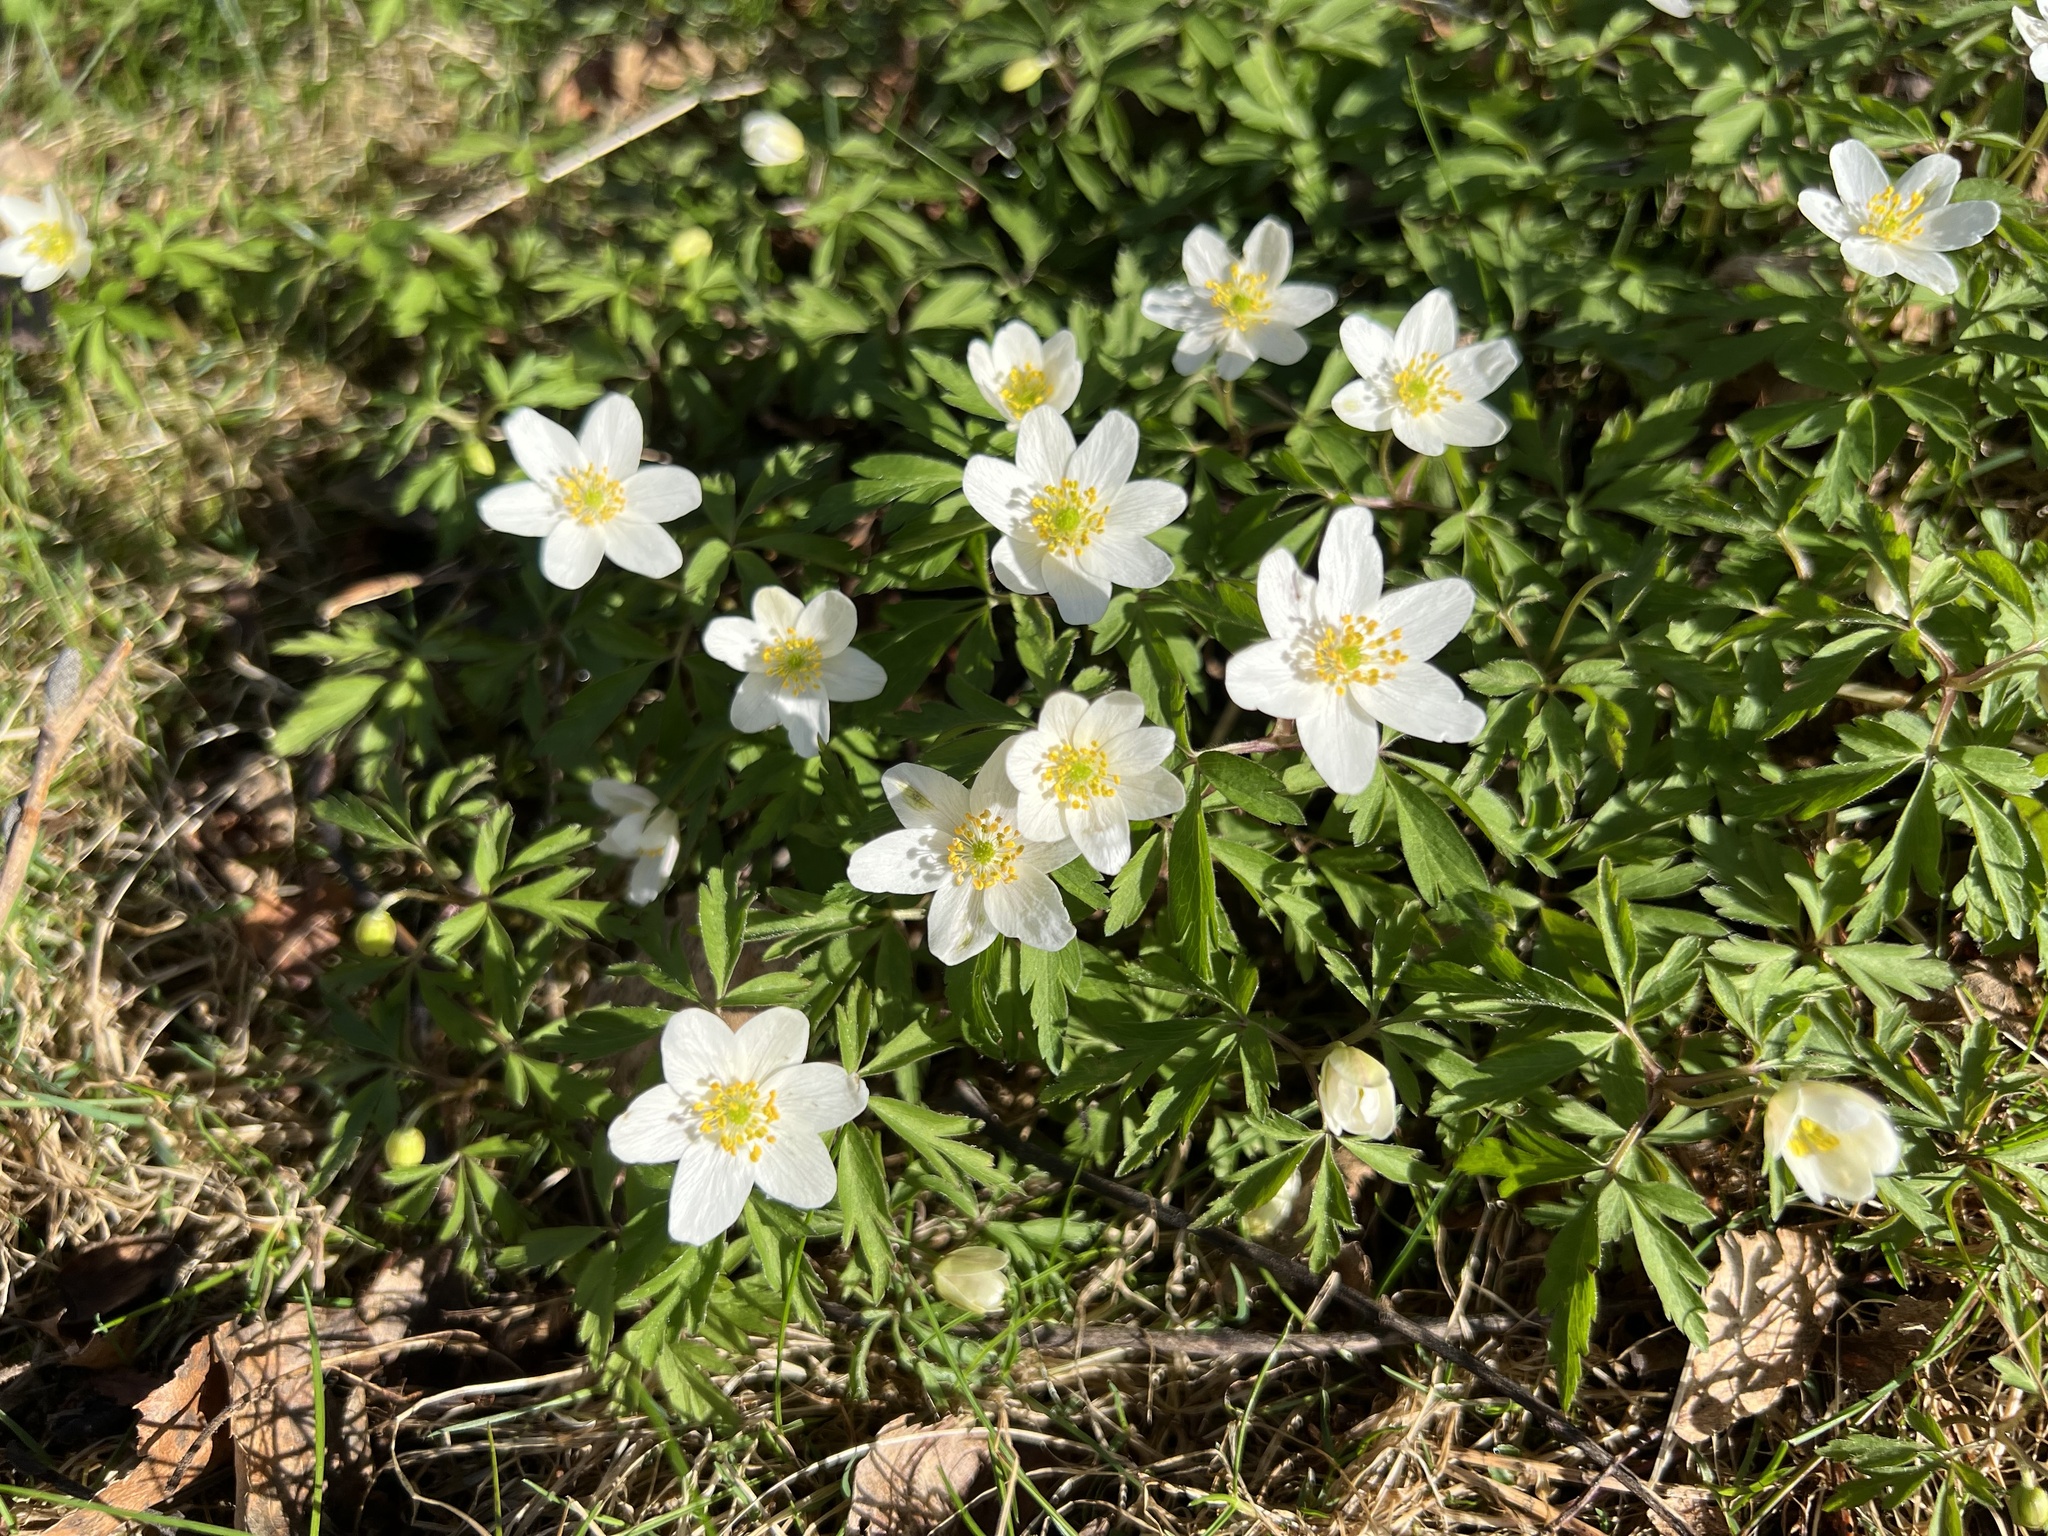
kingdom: Plantae
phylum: Tracheophyta
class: Magnoliopsida
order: Ranunculales
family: Ranunculaceae
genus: Anemone
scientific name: Anemone nemorosa
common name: Wood anemone
